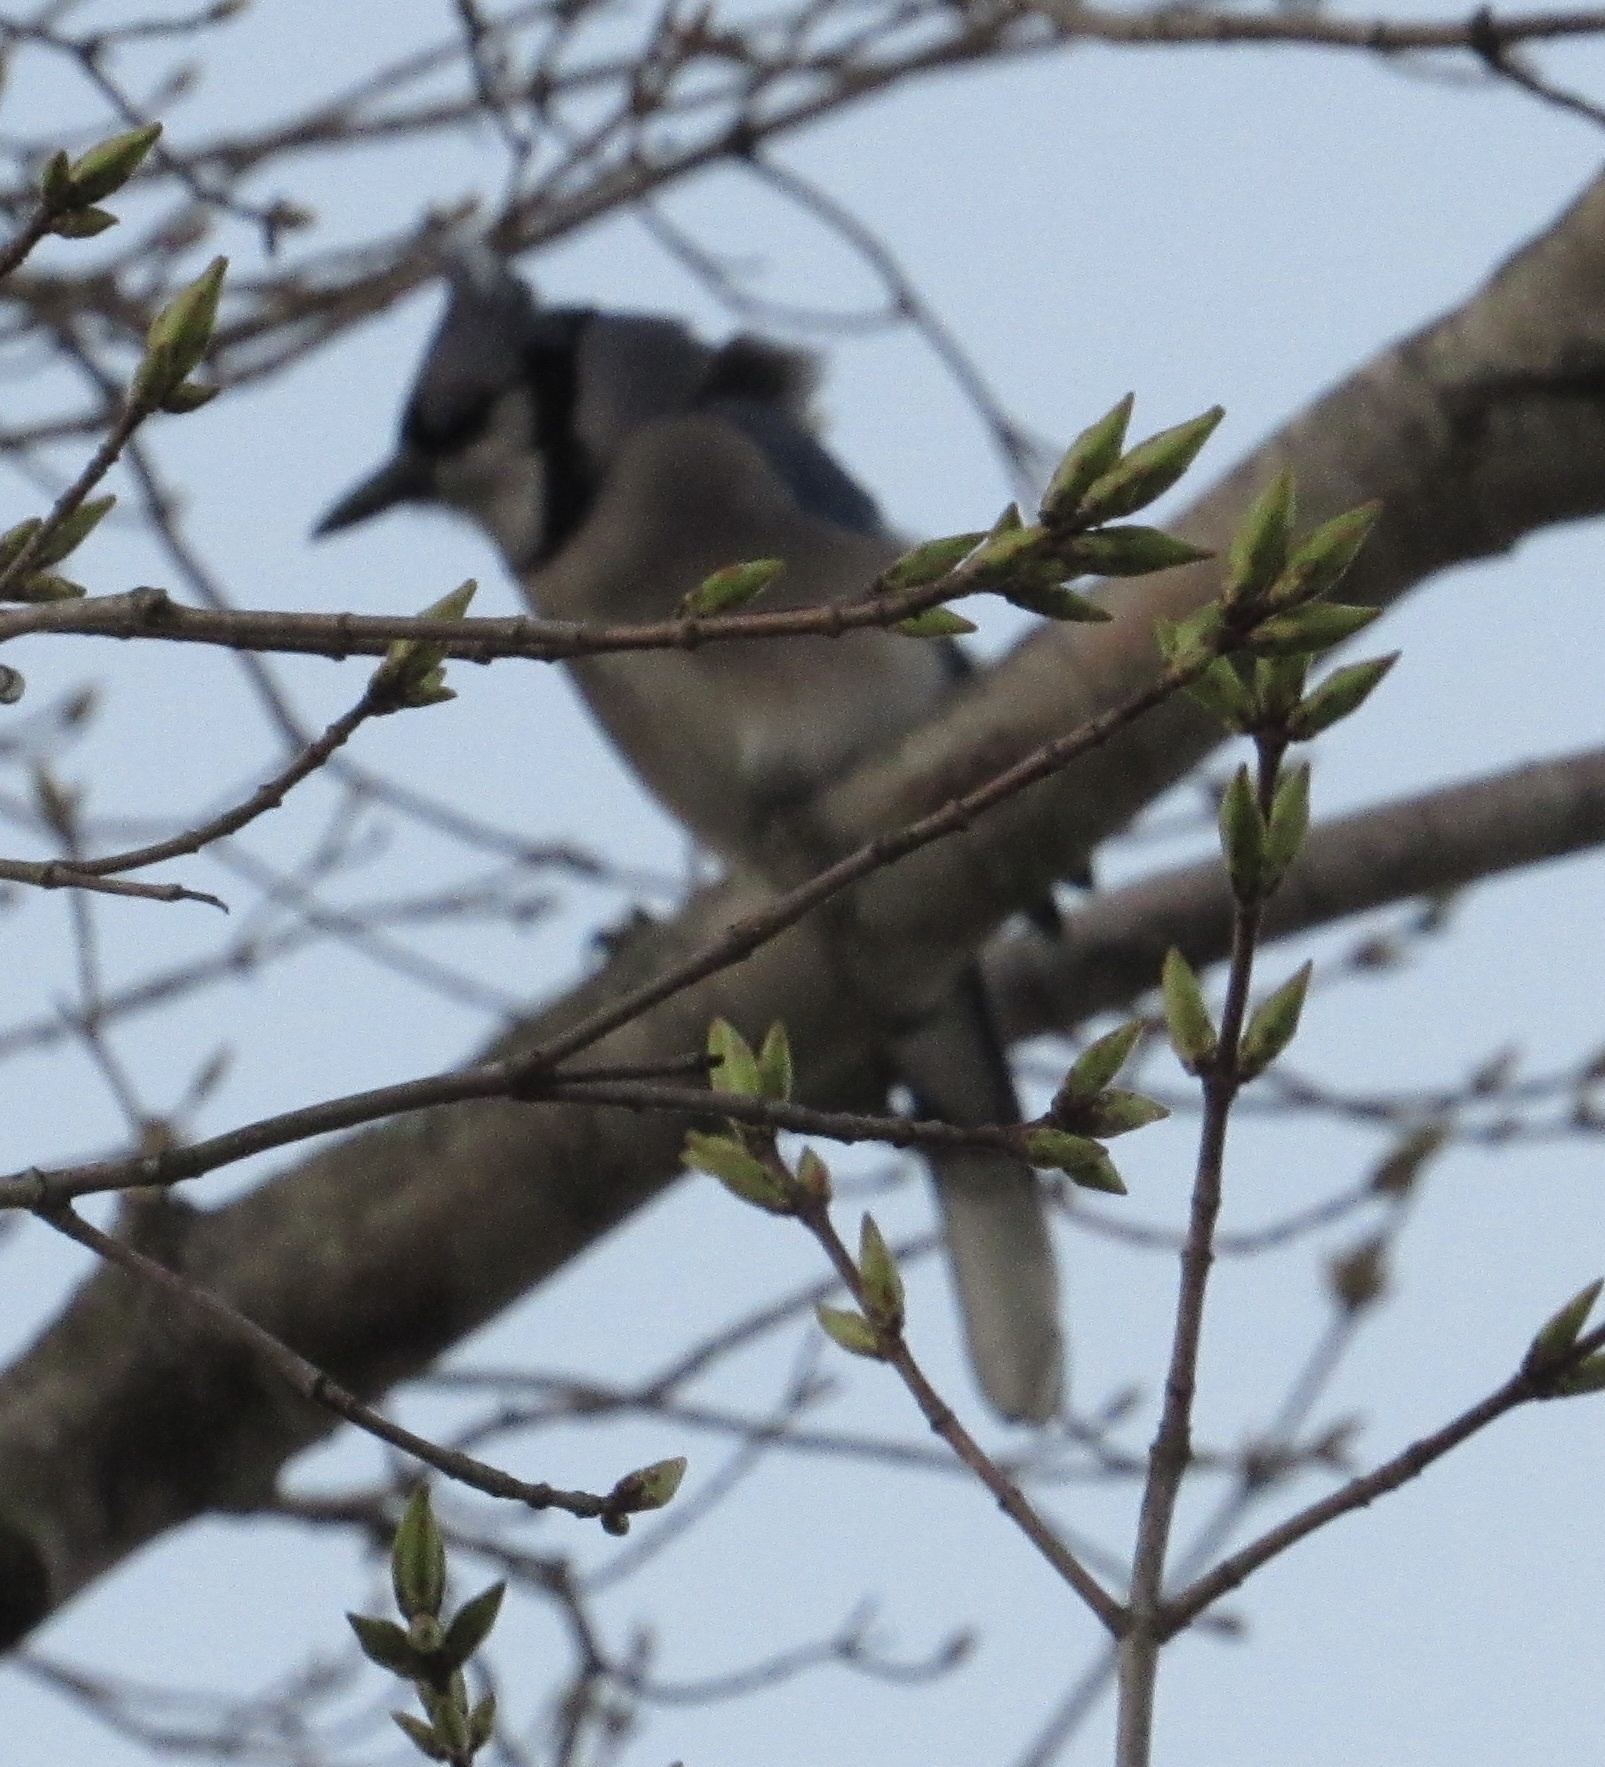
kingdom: Animalia
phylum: Chordata
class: Aves
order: Passeriformes
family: Corvidae
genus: Cyanocitta
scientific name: Cyanocitta cristata
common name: Blue jay
